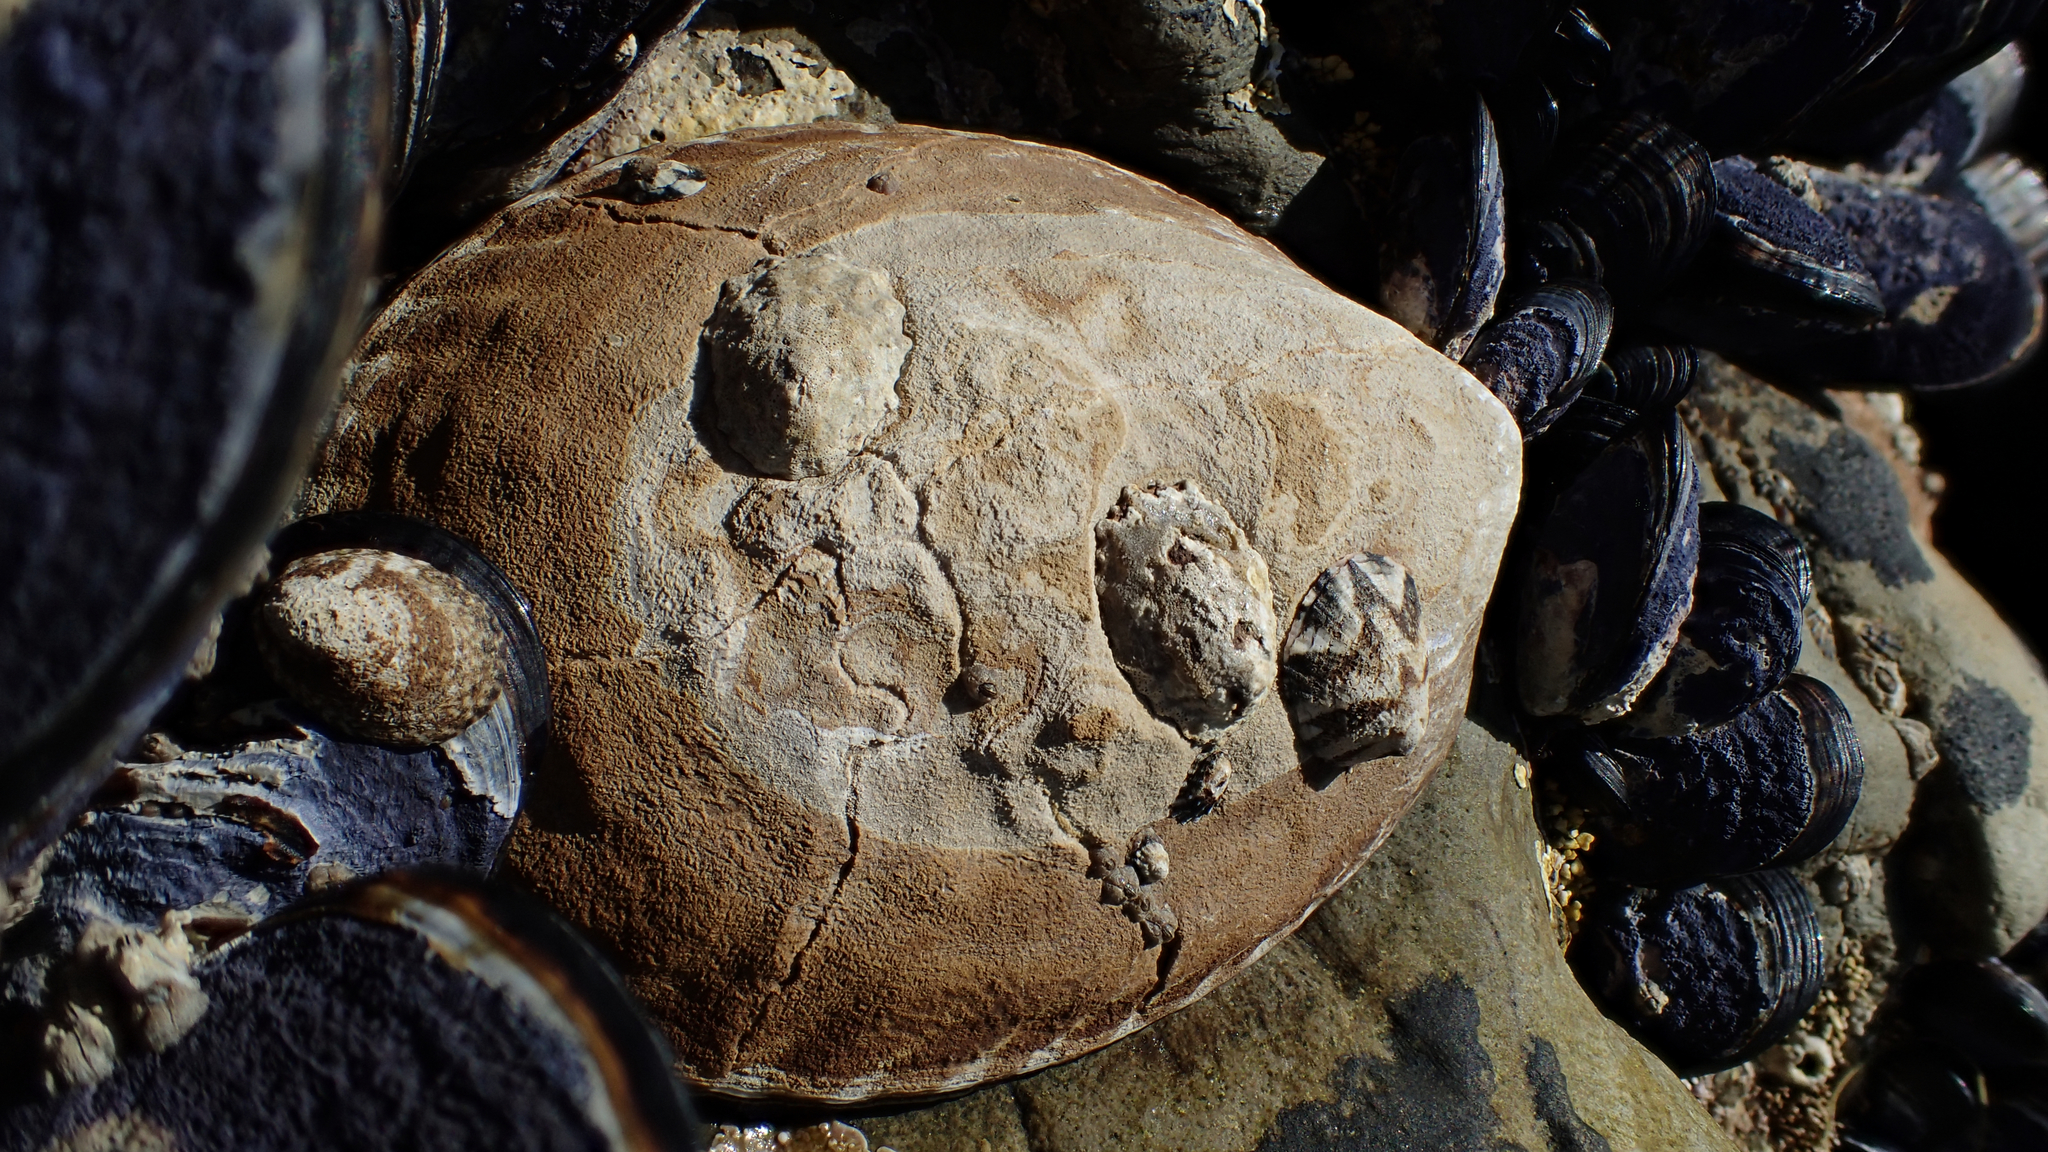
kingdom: Animalia
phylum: Mollusca
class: Gastropoda
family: Lottiidae
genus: Lottia
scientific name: Lottia gigantea
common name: Owl limpet
